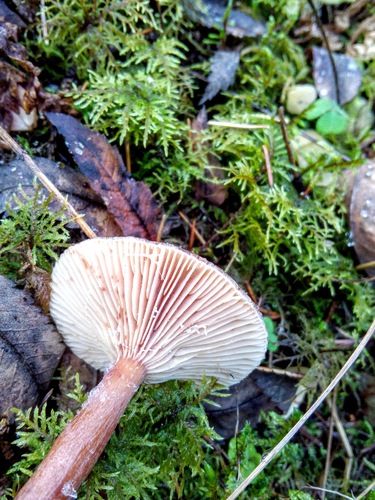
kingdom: Fungi
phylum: Basidiomycota
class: Agaricomycetes
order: Russulales
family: Russulaceae
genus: Lactarius
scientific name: Lactarius
